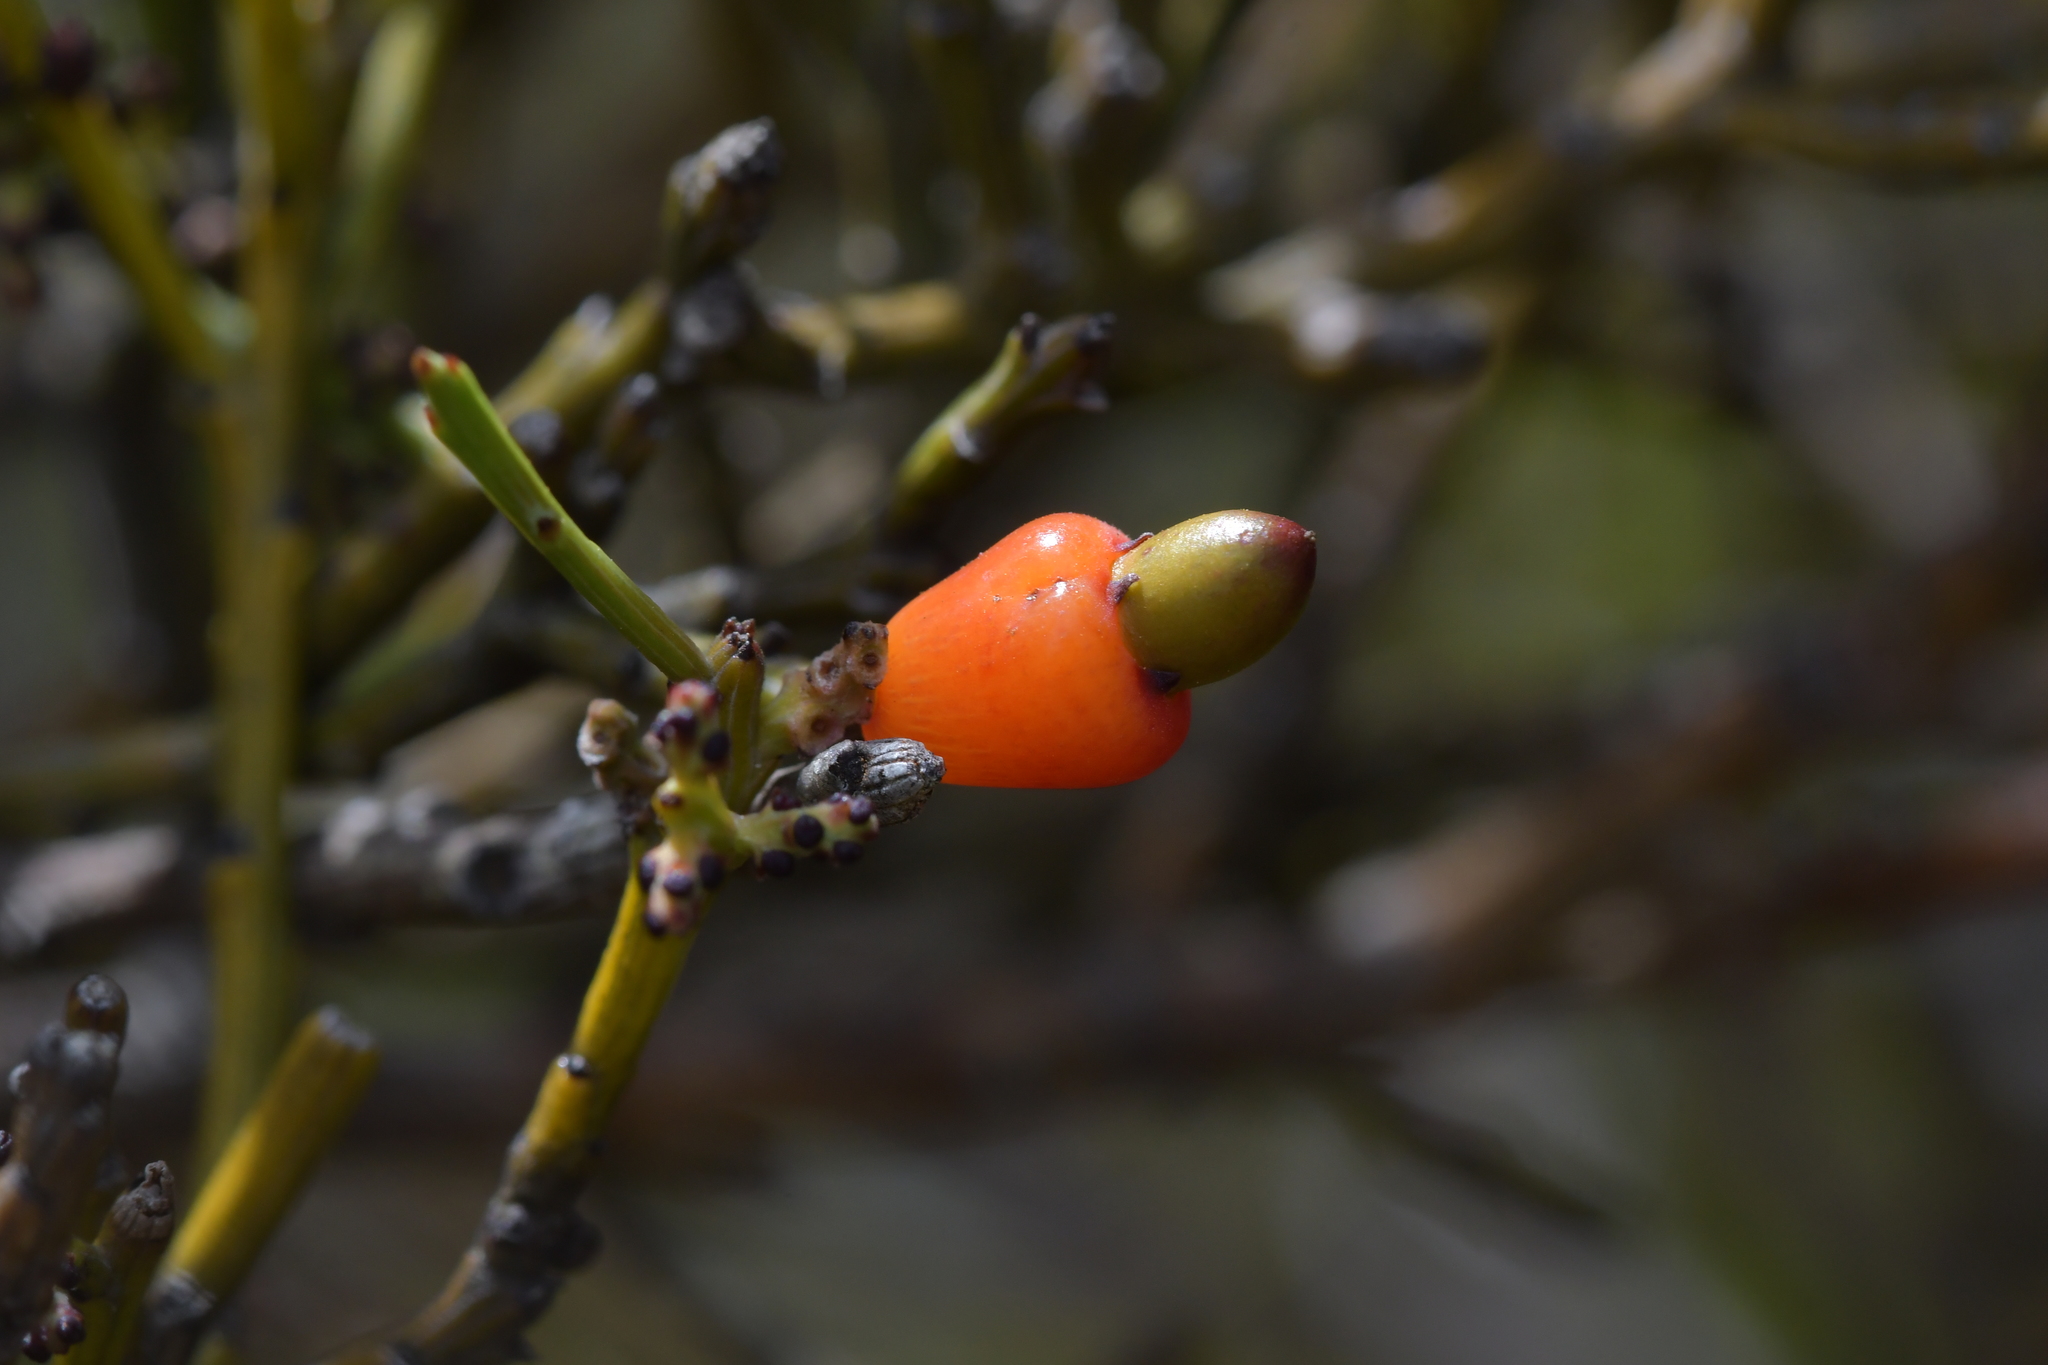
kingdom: Plantae
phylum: Tracheophyta
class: Magnoliopsida
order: Santalales
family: Santalaceae
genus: Exocarpos
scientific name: Exocarpos bidwillii
